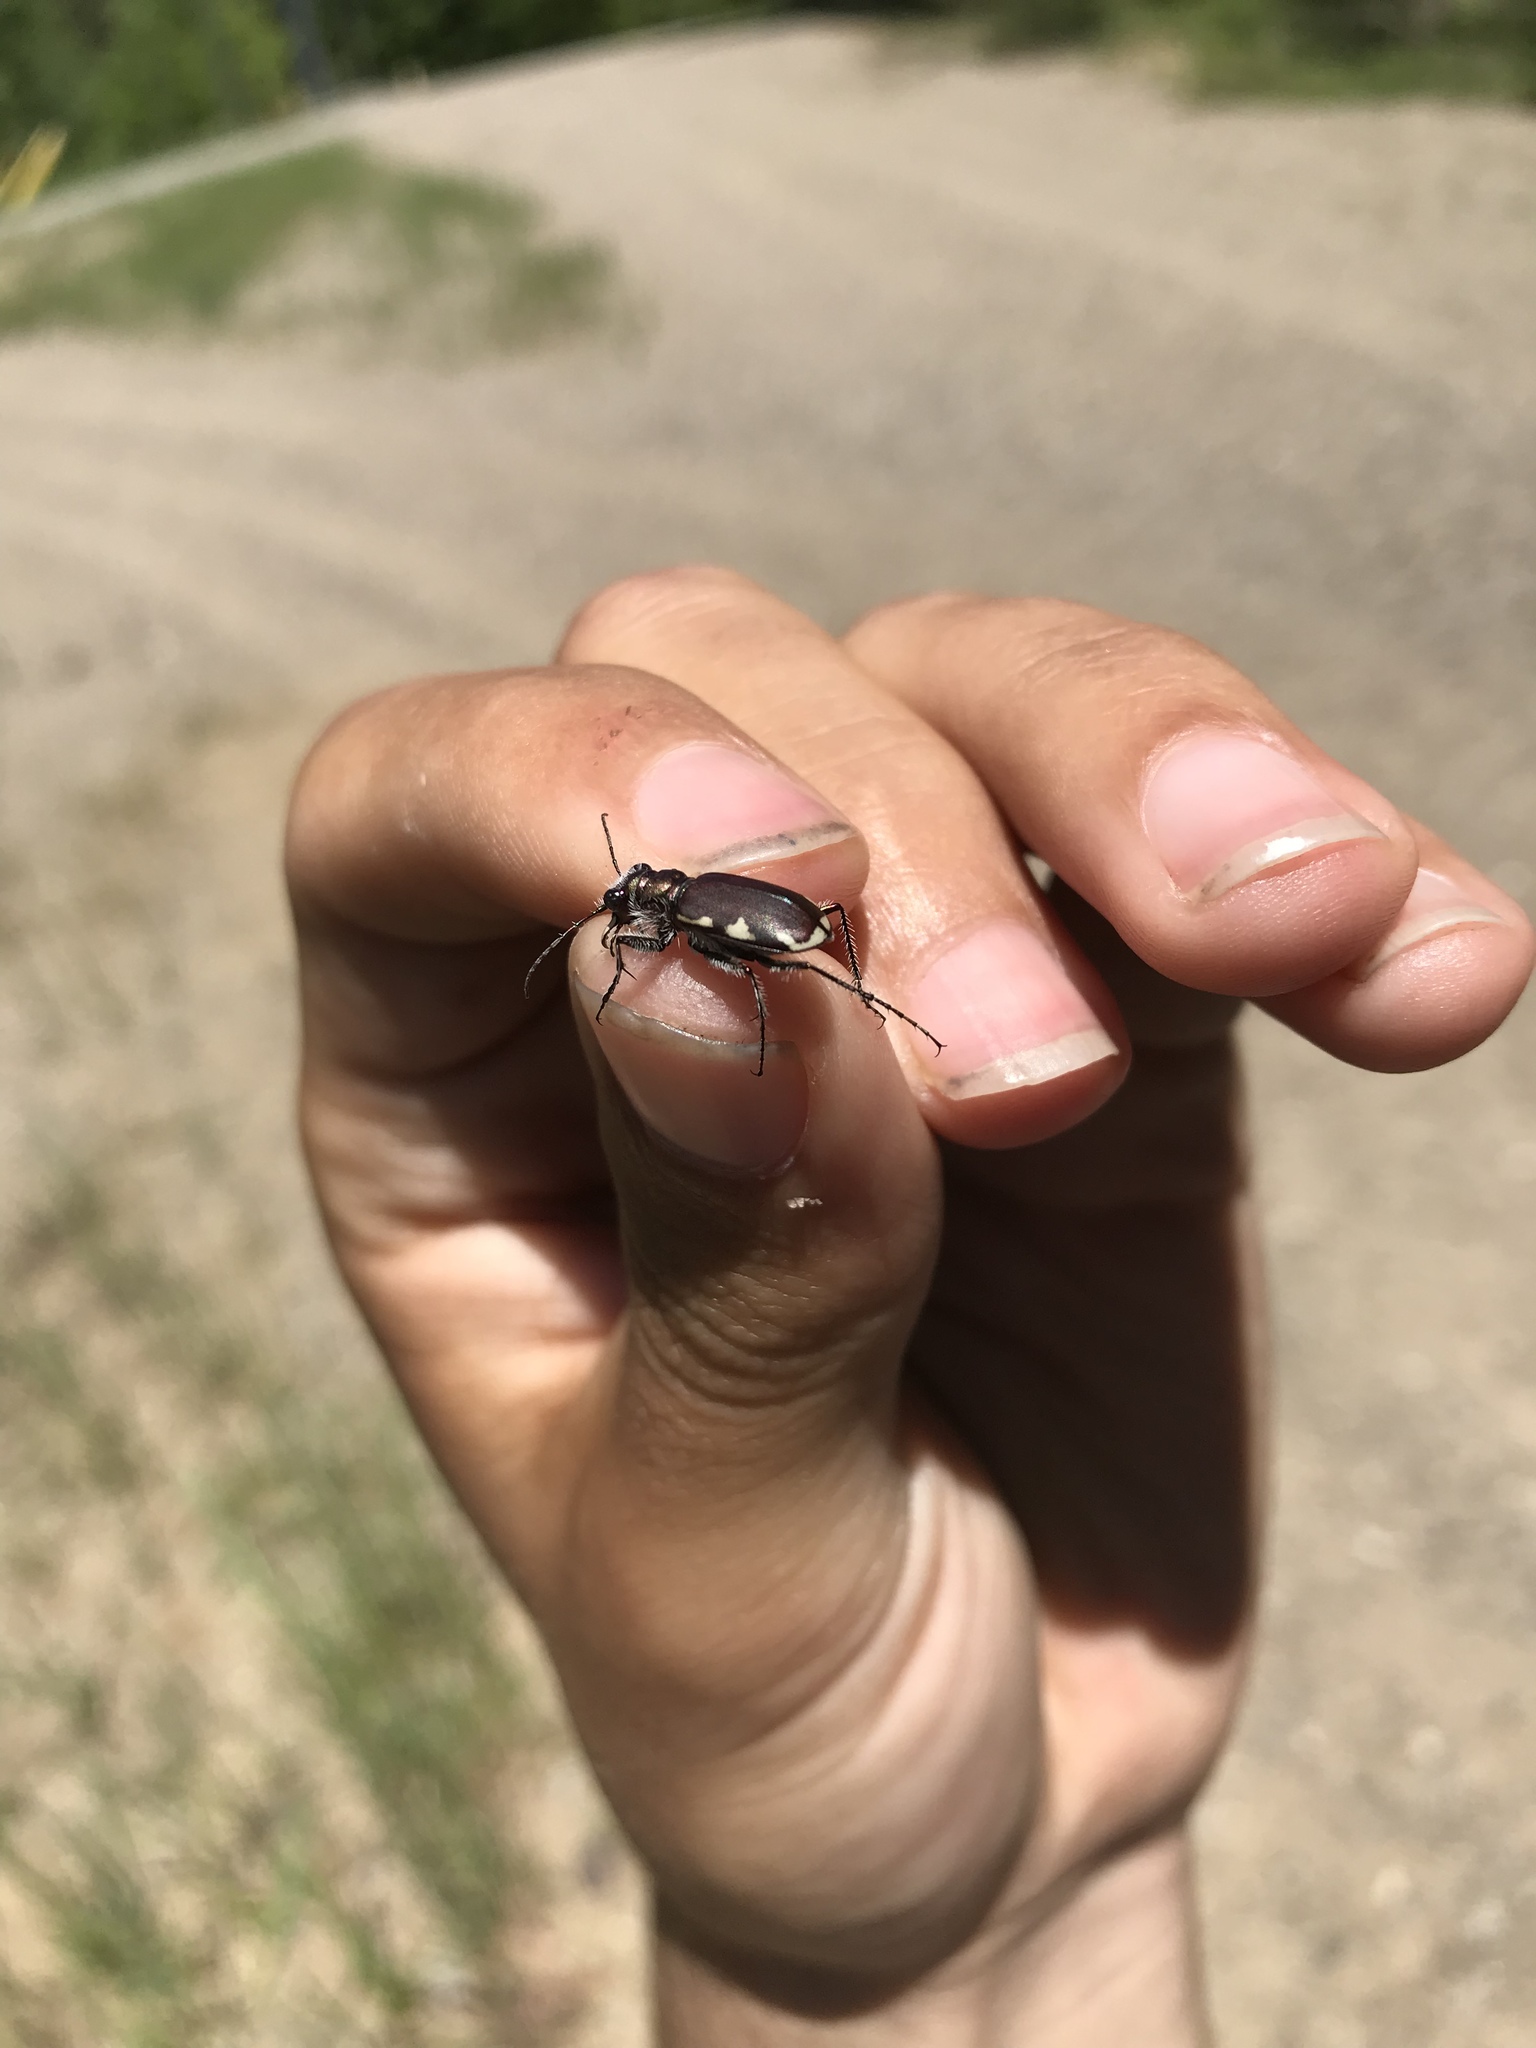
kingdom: Animalia
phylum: Arthropoda
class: Insecta
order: Coleoptera
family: Carabidae
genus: Cicindela
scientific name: Cicindela scutellaris
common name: Festive tiger beetle
